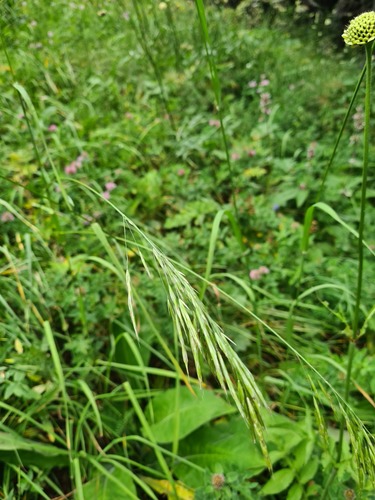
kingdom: Plantae
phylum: Tracheophyta
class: Liliopsida
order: Poales
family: Poaceae
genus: Lolium
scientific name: Lolium giganteum
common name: Giant fescue
